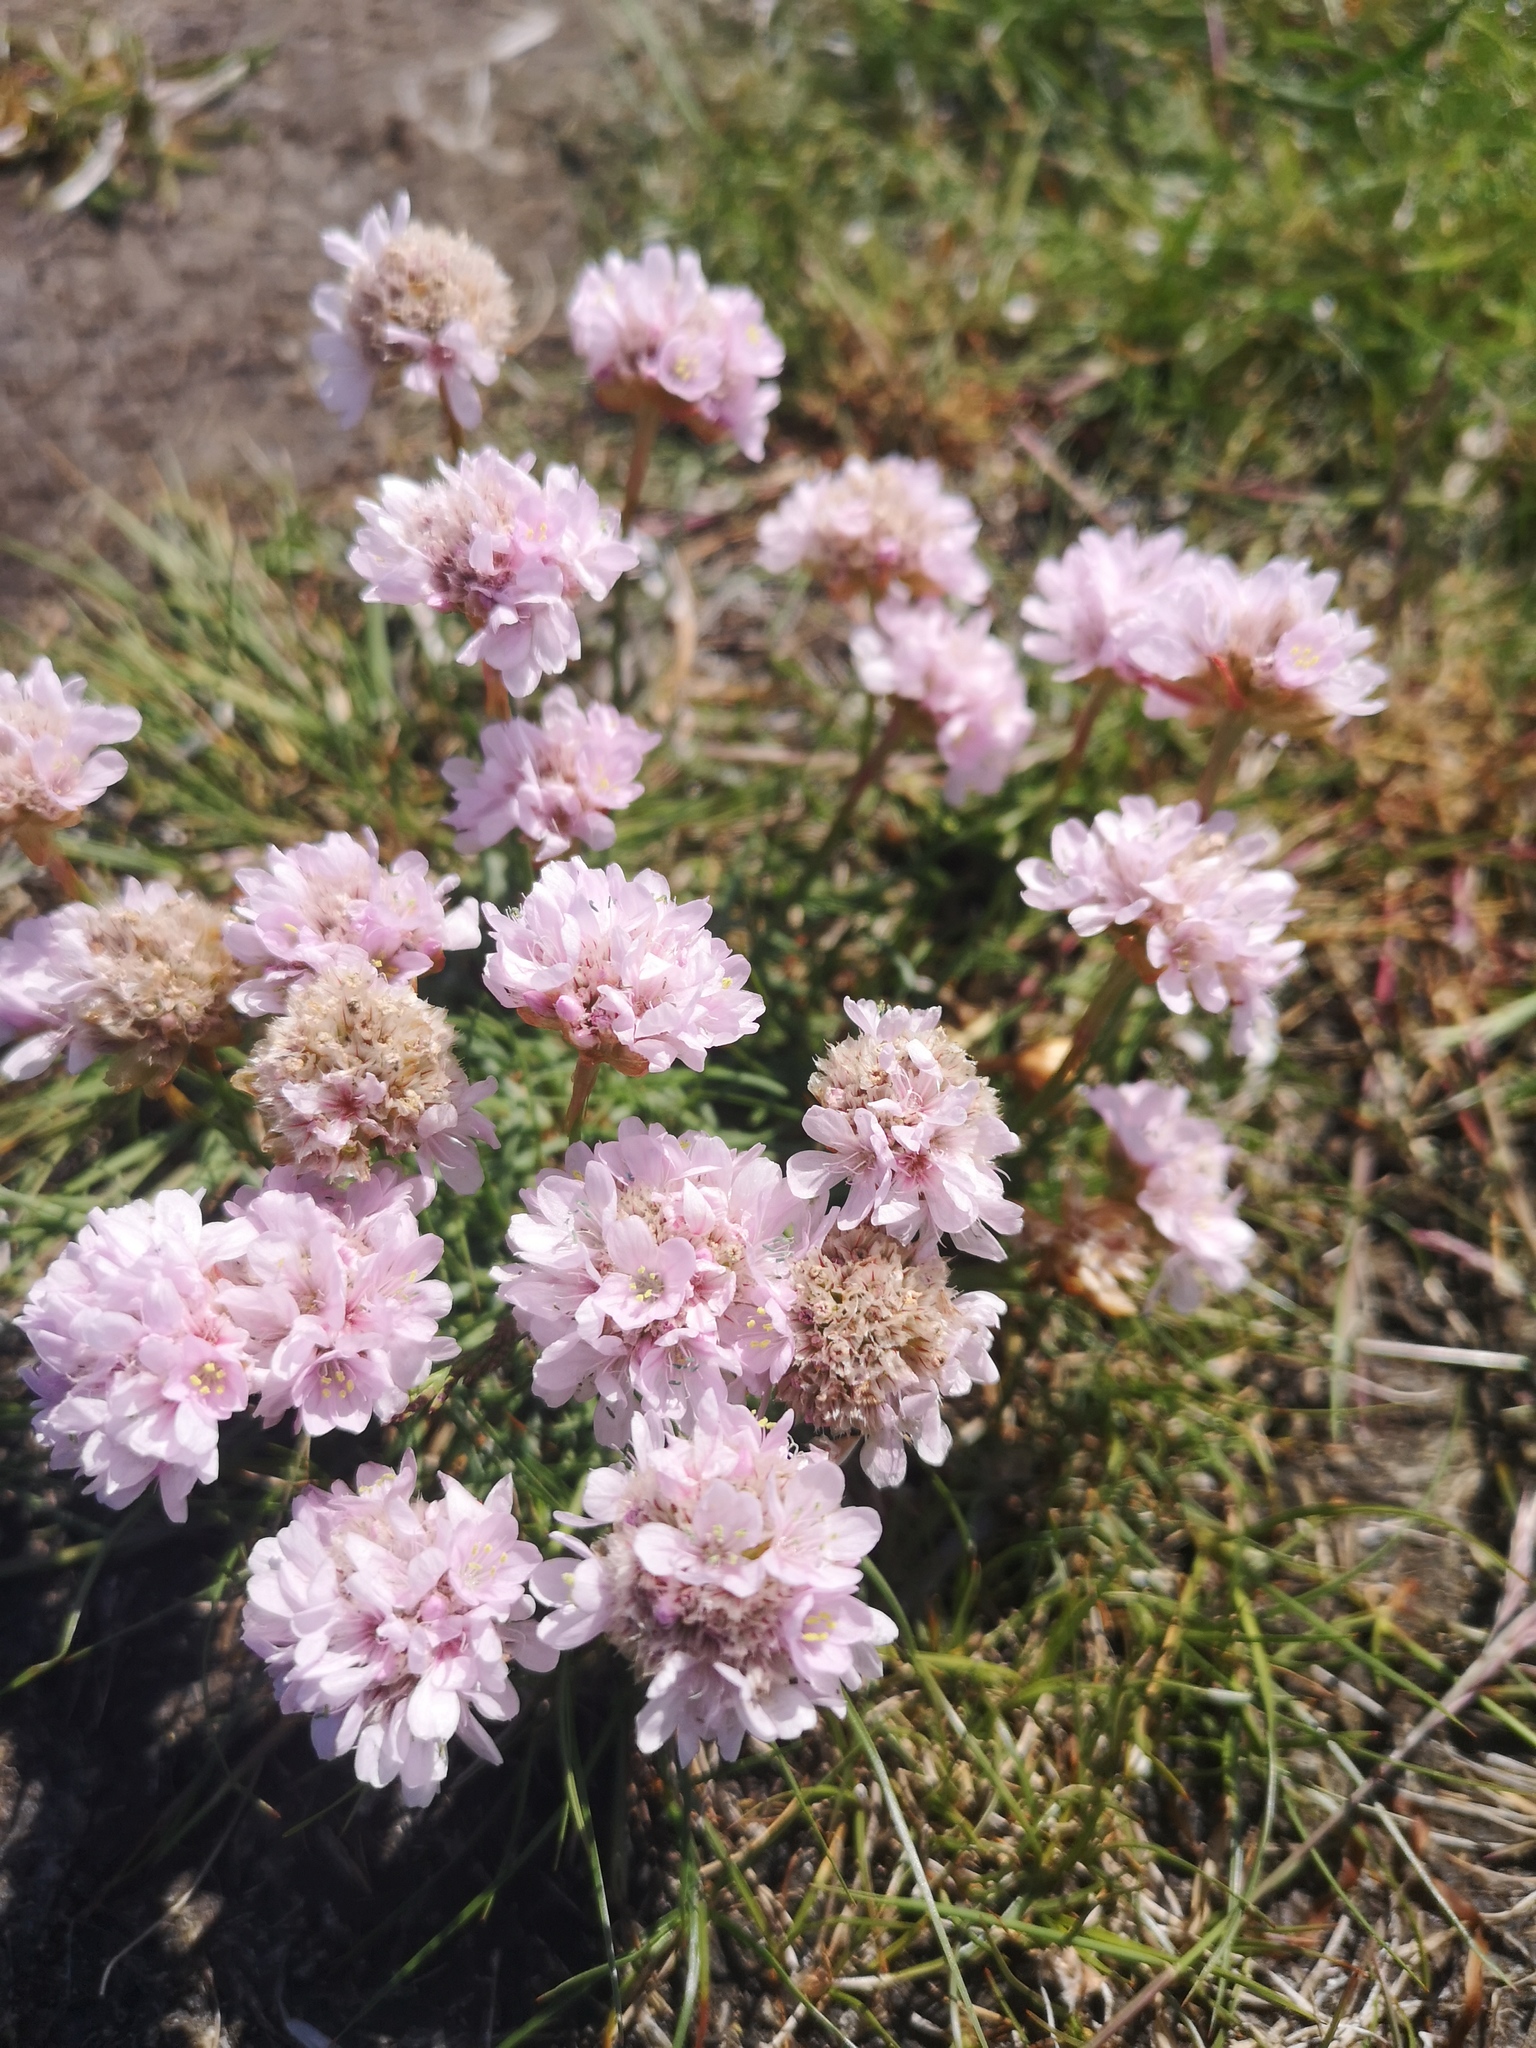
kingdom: Plantae
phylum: Tracheophyta
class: Magnoliopsida
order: Caryophyllales
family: Plumbaginaceae
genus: Armeria
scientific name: Armeria maritima
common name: Thrift
